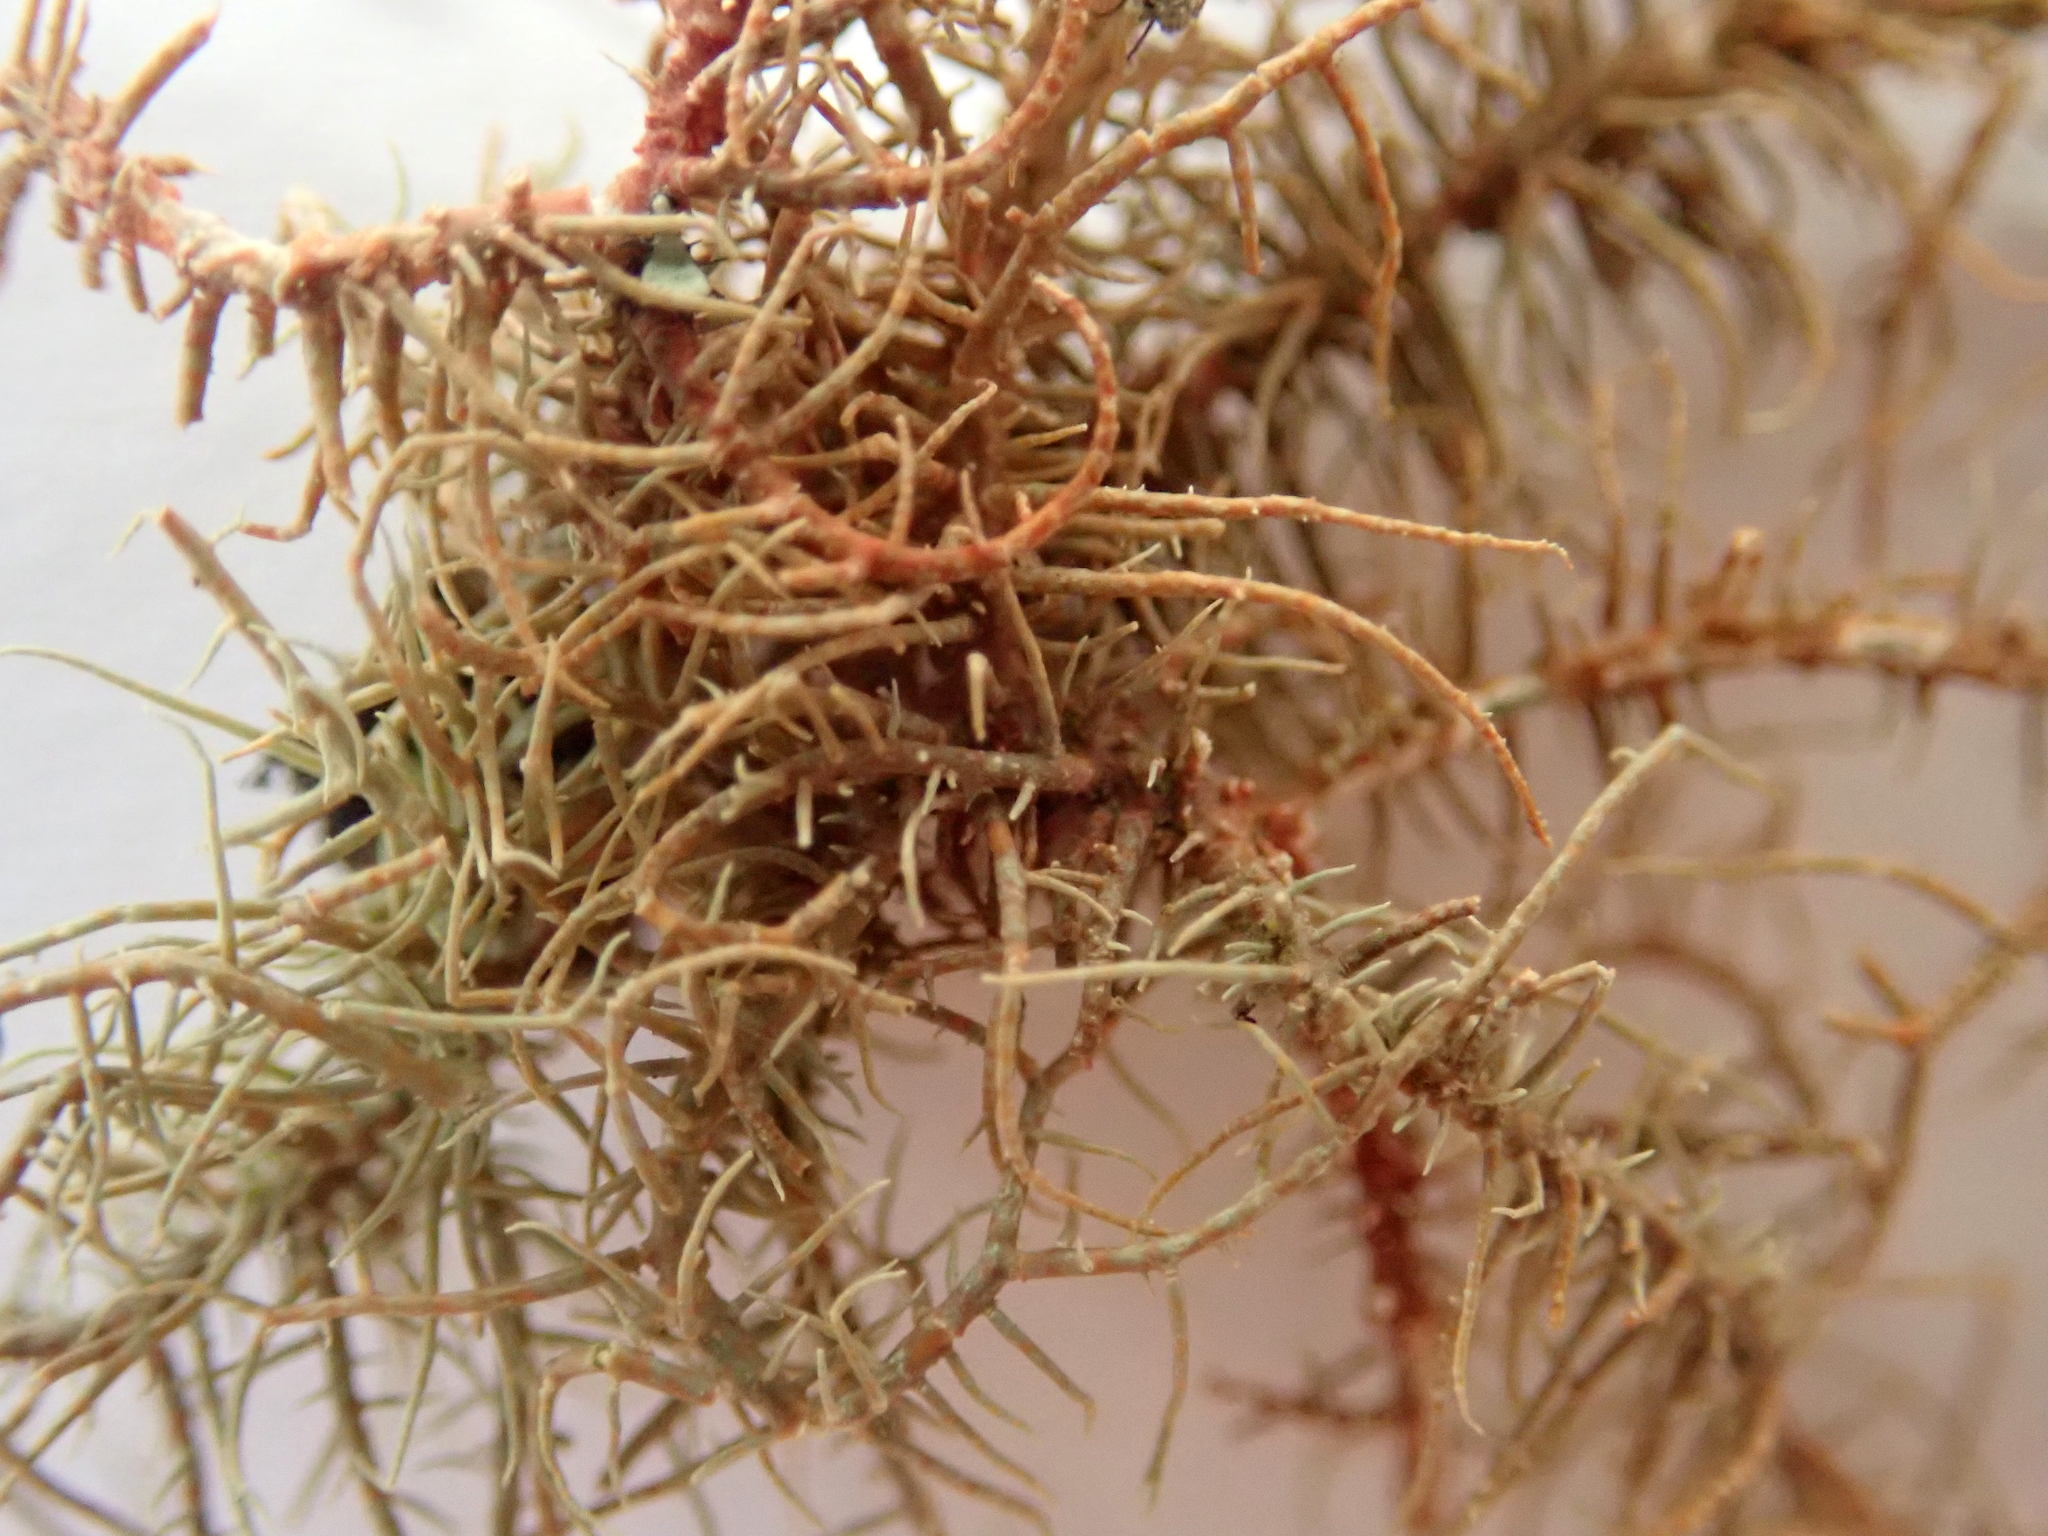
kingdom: Fungi
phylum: Ascomycota
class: Lecanoromycetes
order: Lecanorales
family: Parmeliaceae
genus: Usnea
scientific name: Usnea rubicunda
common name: Red beard lichen
